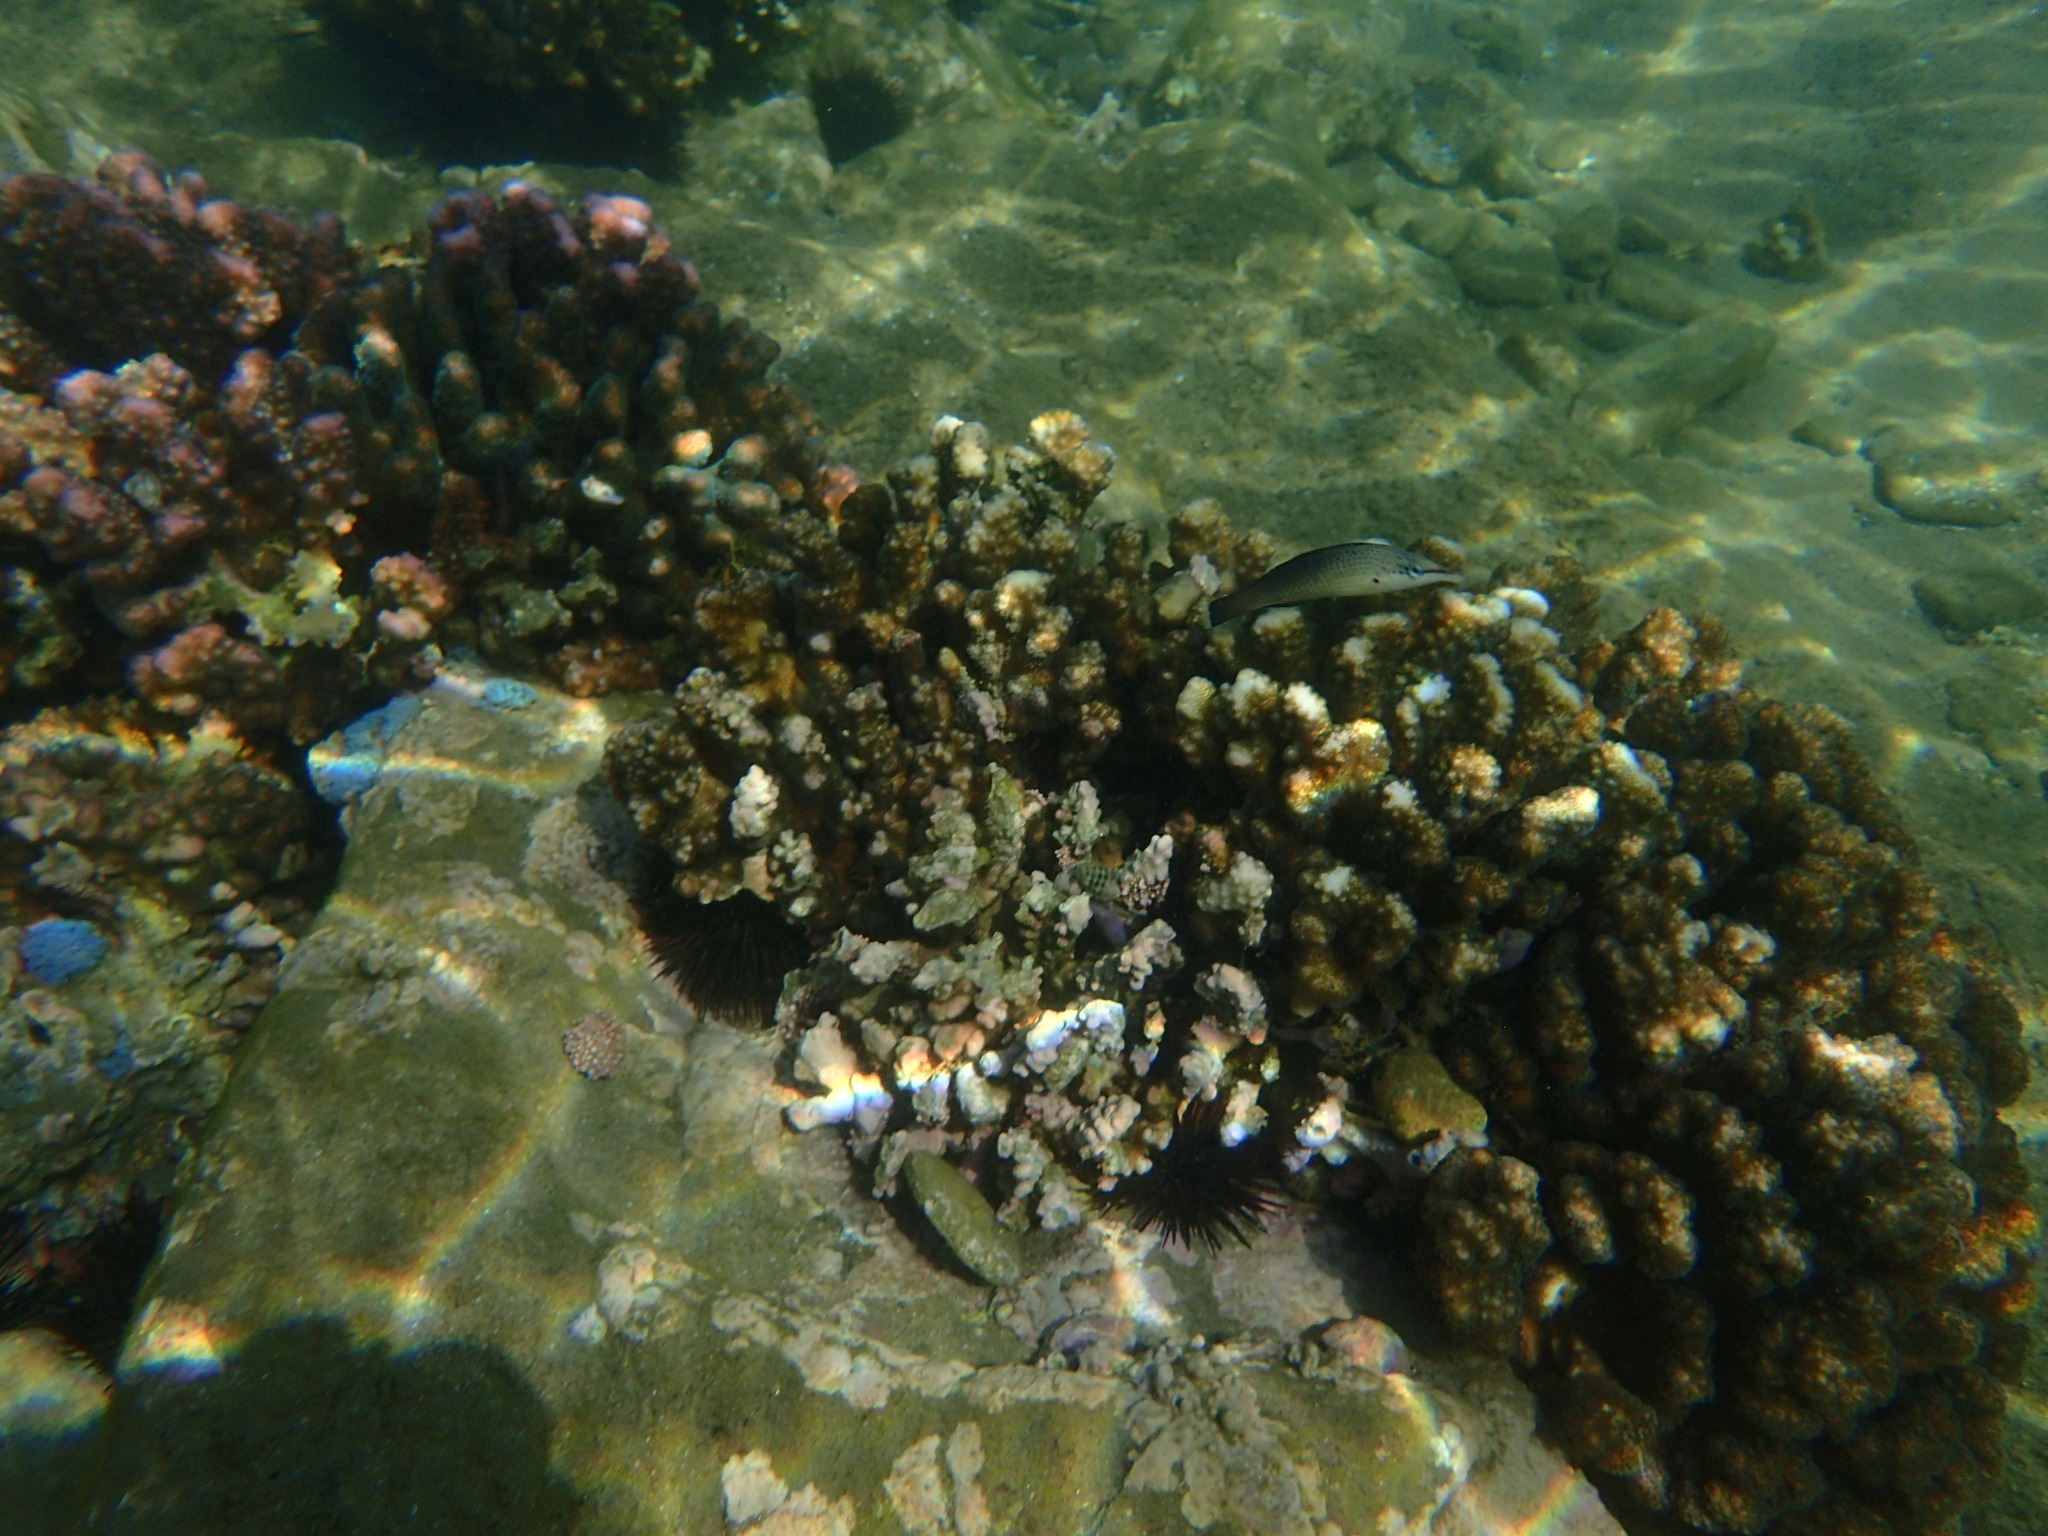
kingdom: Animalia
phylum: Chordata
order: Perciformes
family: Labridae
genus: Gomphosus
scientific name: Gomphosus caeruleus
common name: Bird wrasse
